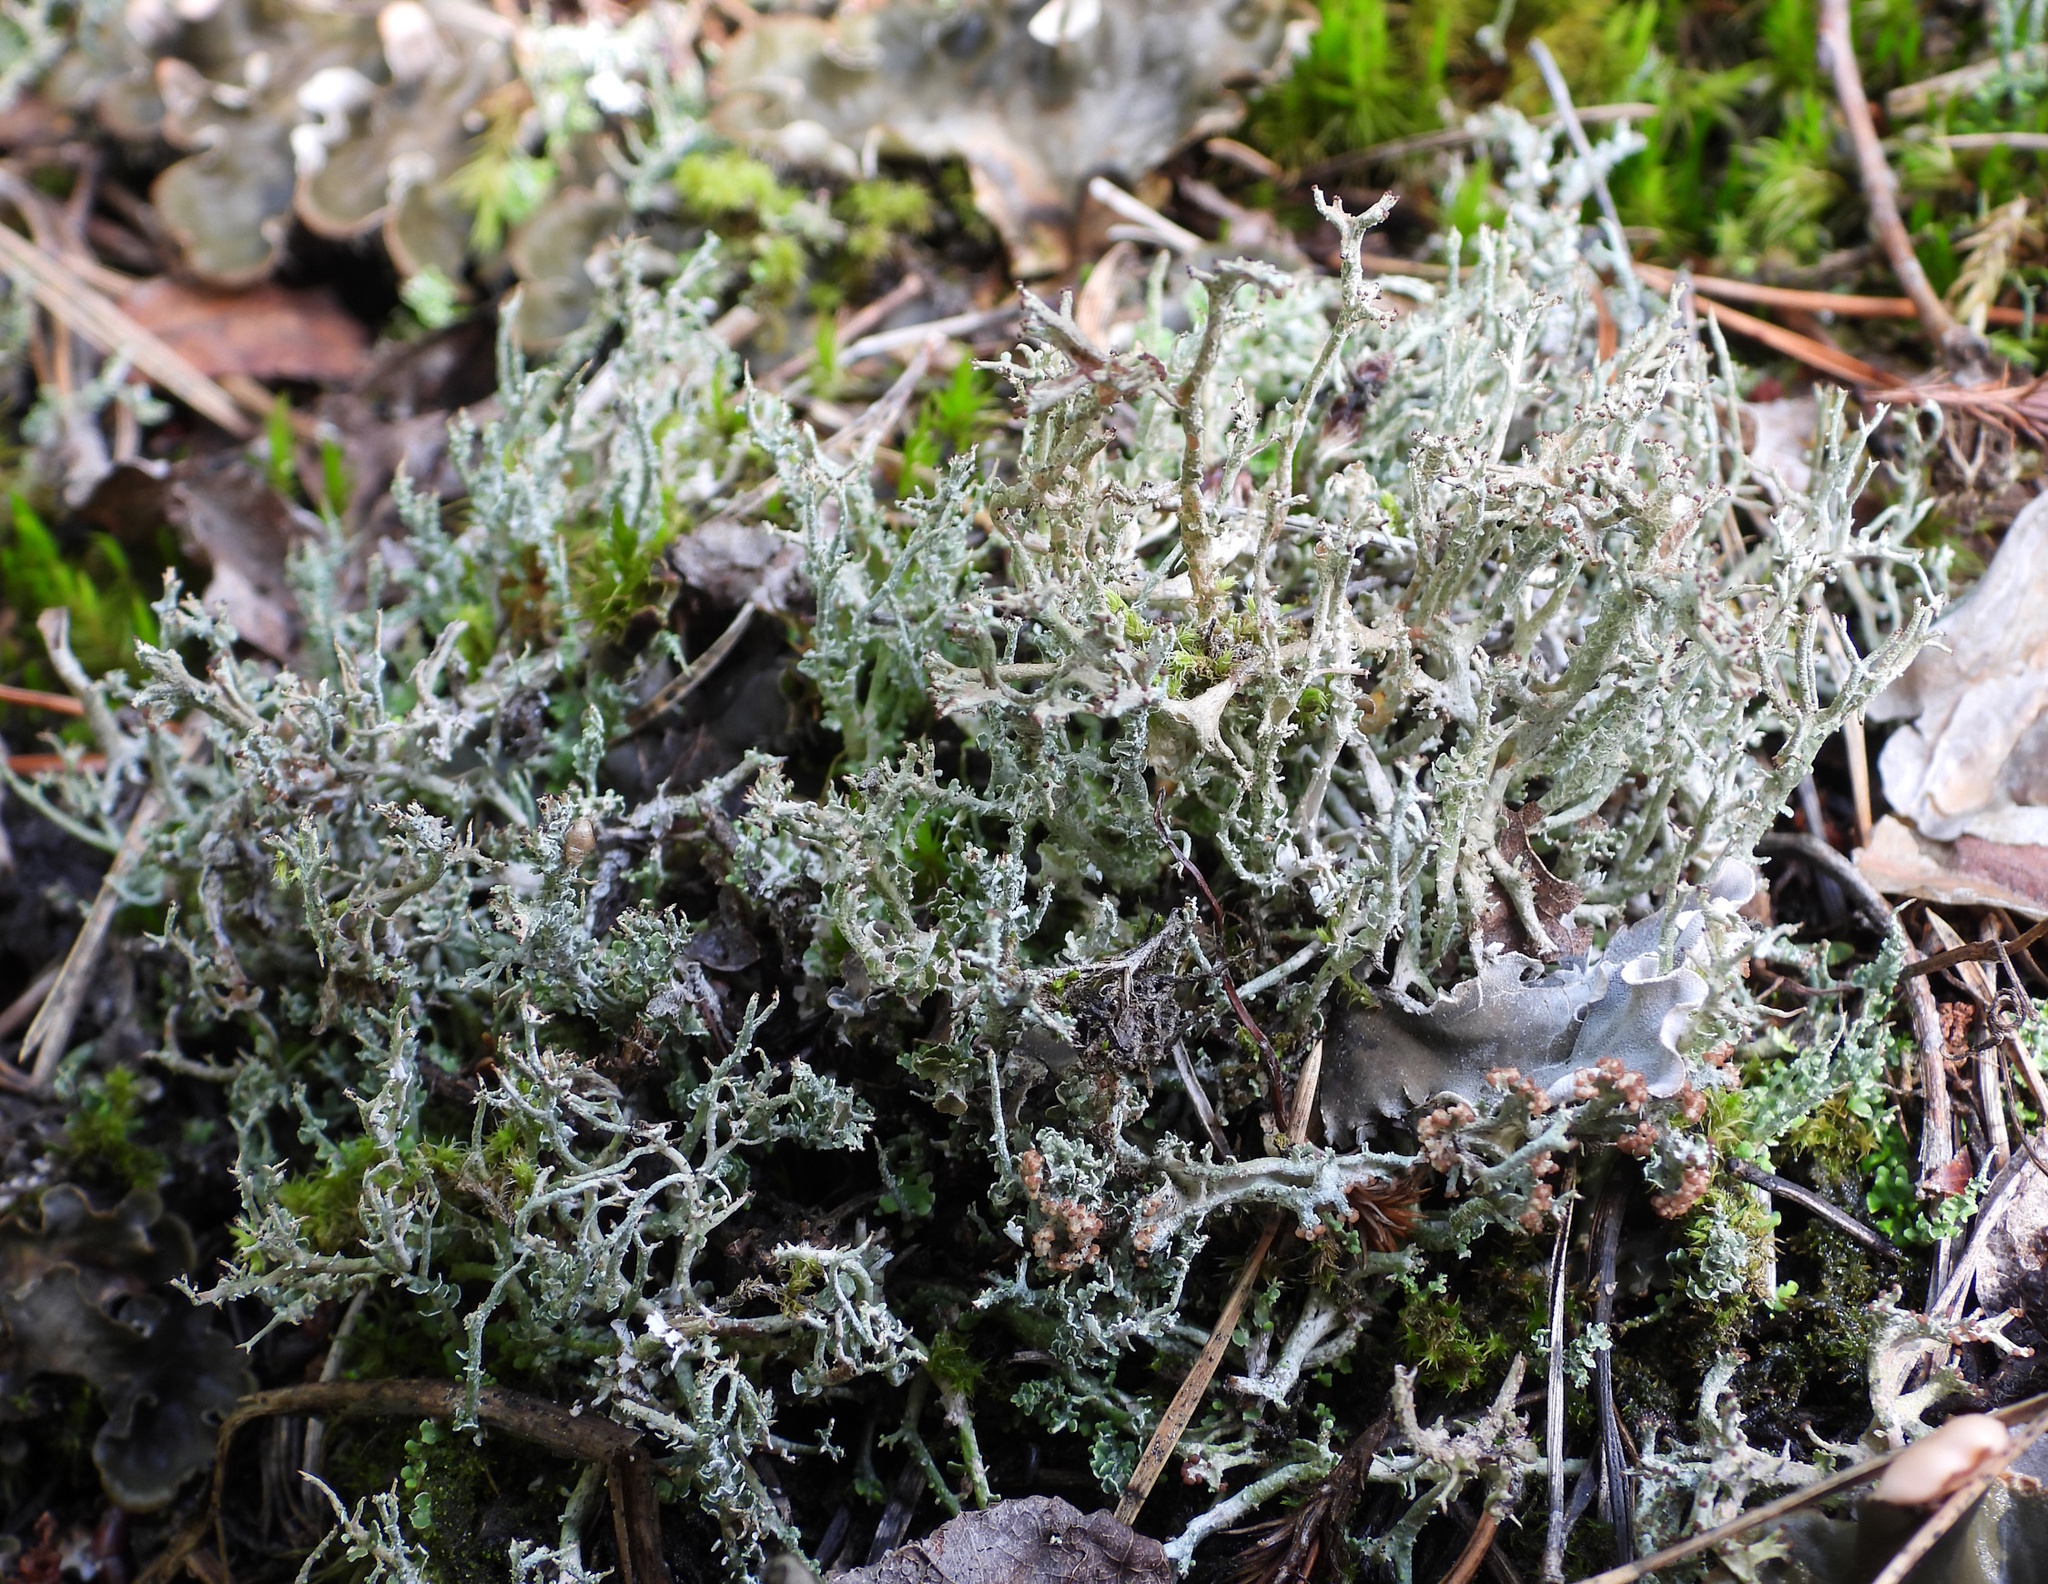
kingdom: Fungi
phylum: Ascomycota
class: Lecanoromycetes
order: Lecanorales
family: Cladoniaceae
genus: Cladonia
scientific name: Cladonia furcata
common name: Many-forked cladonia
